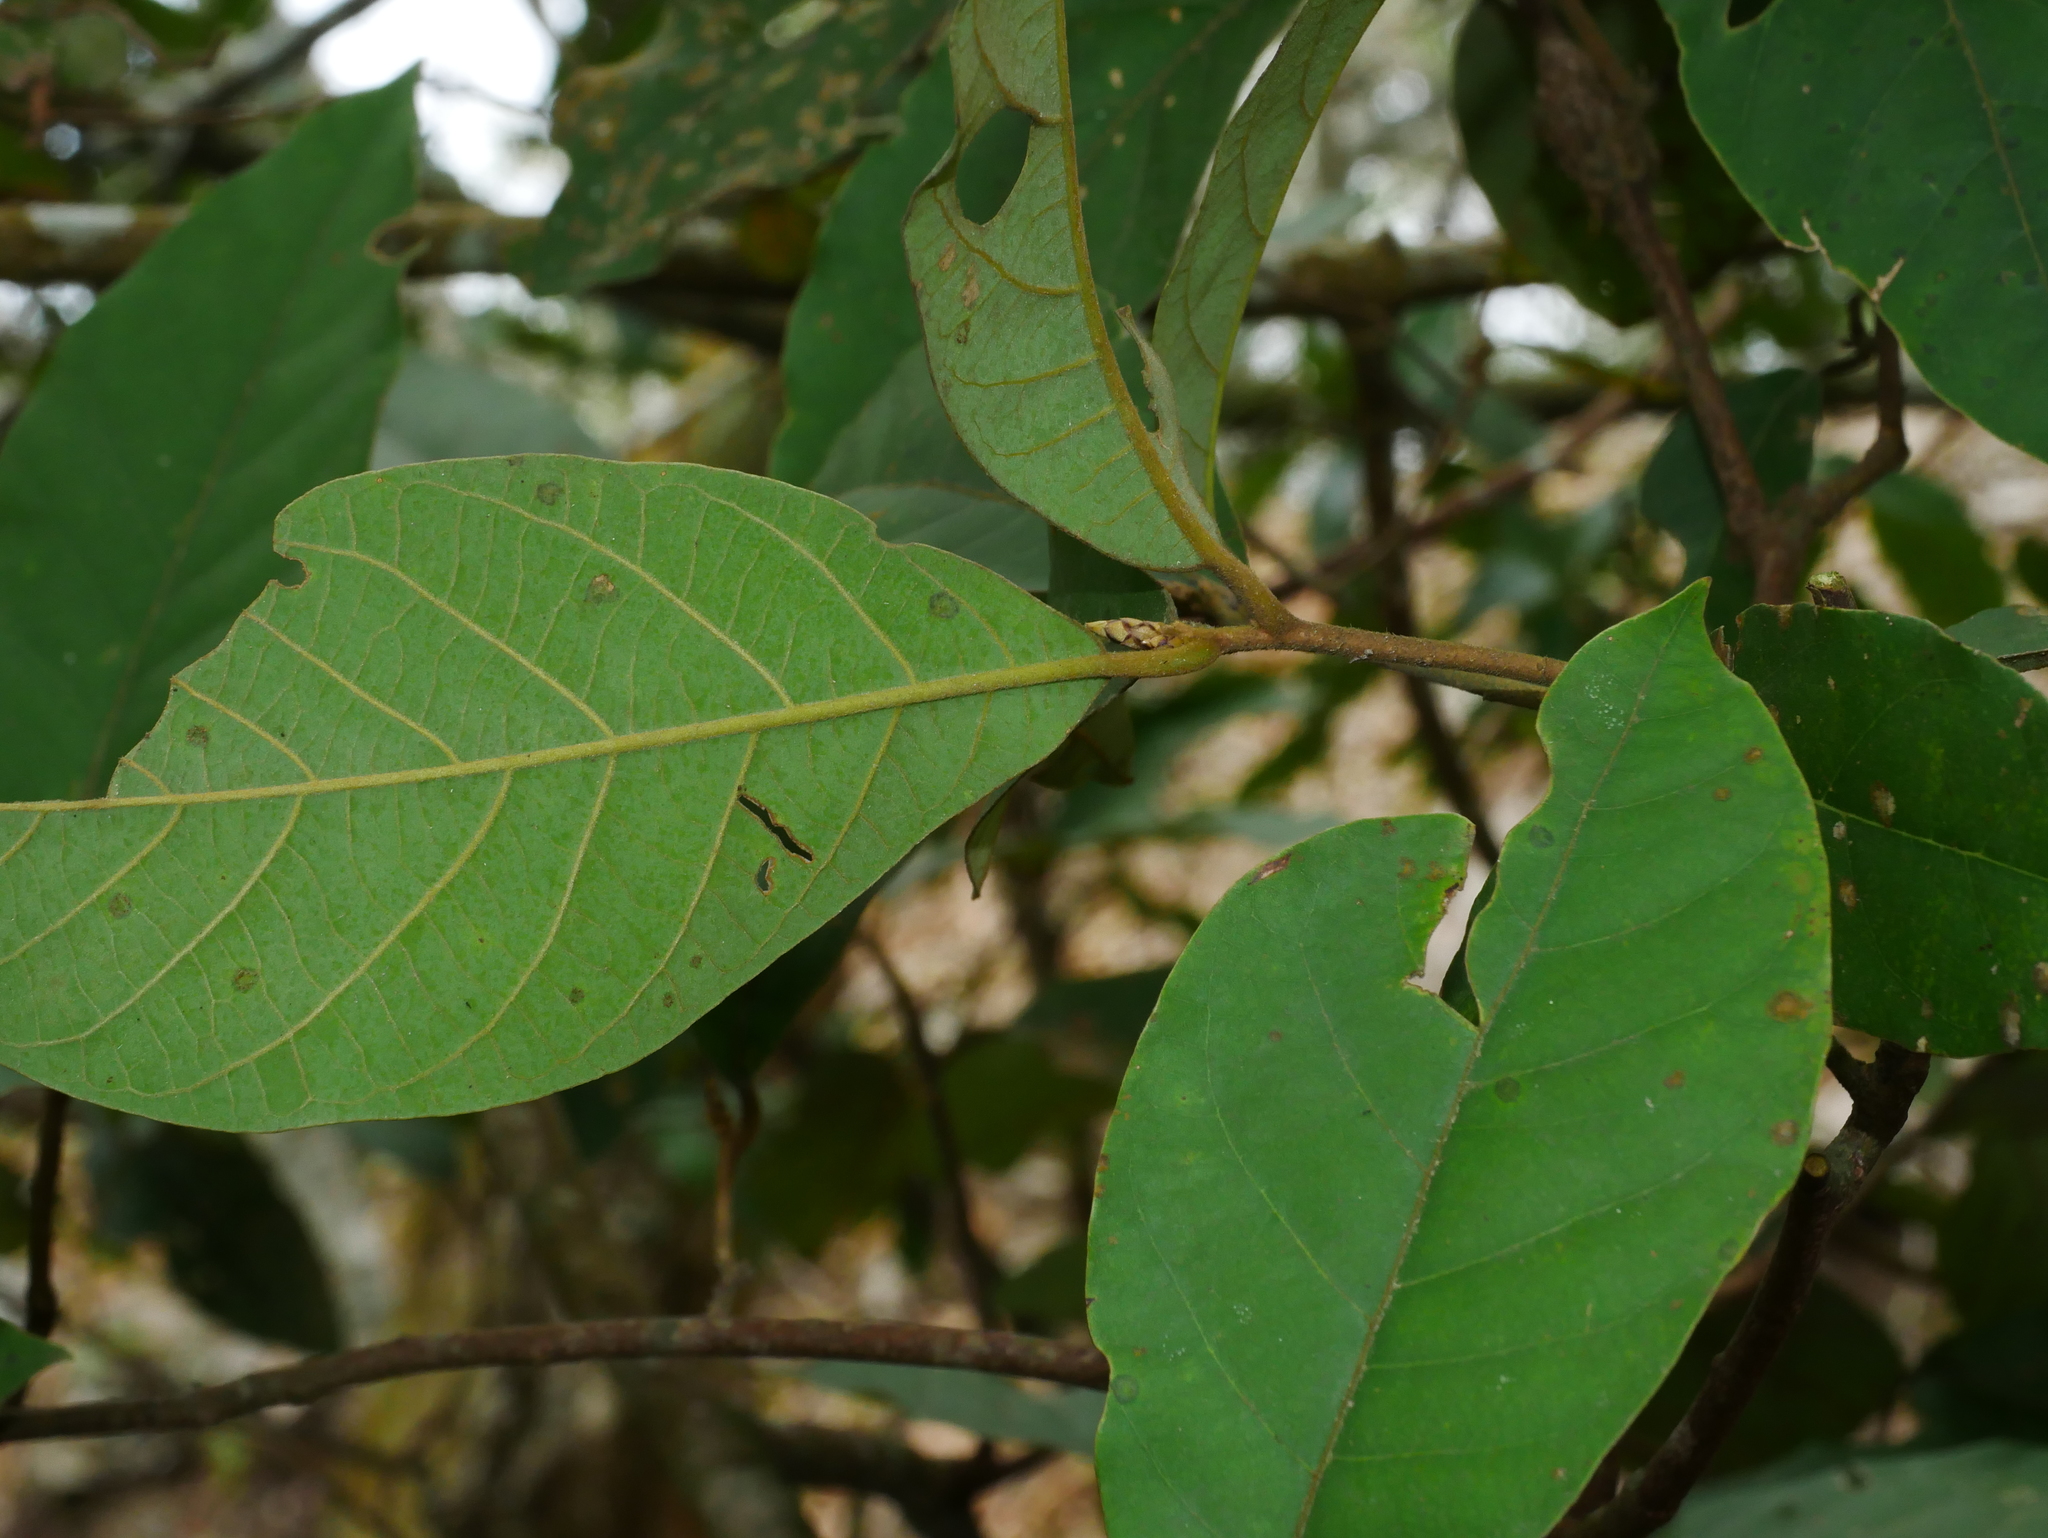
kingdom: Plantae
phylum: Tracheophyta
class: Magnoliopsida
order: Laurales
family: Lauraceae
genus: Litsea
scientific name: Litsea akoensis
